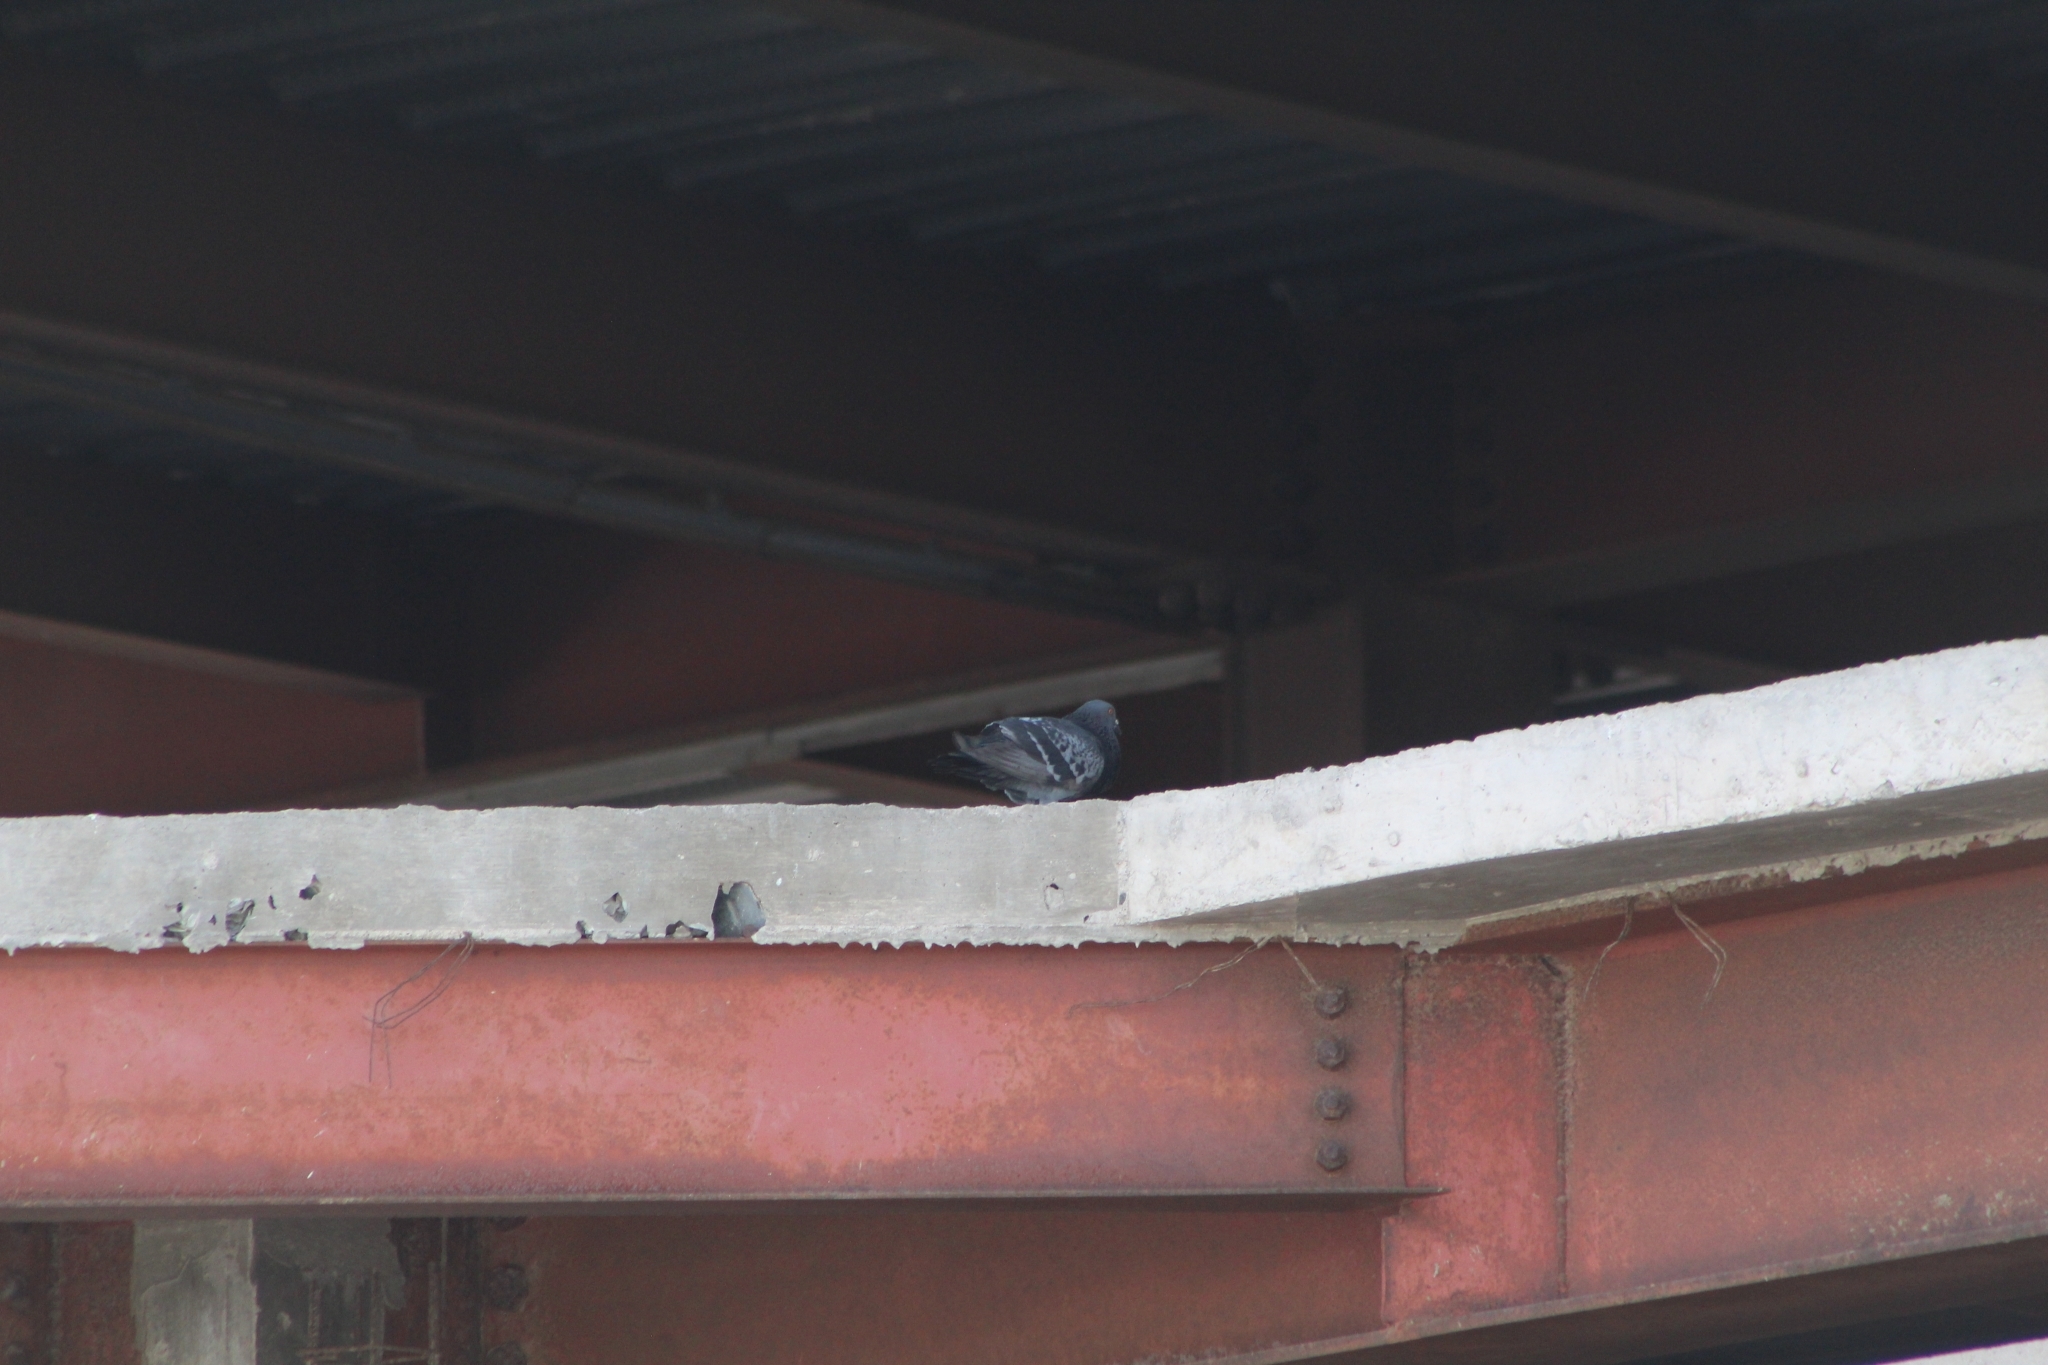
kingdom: Animalia
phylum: Chordata
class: Aves
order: Columbiformes
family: Columbidae
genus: Columba
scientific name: Columba livia
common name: Rock pigeon
